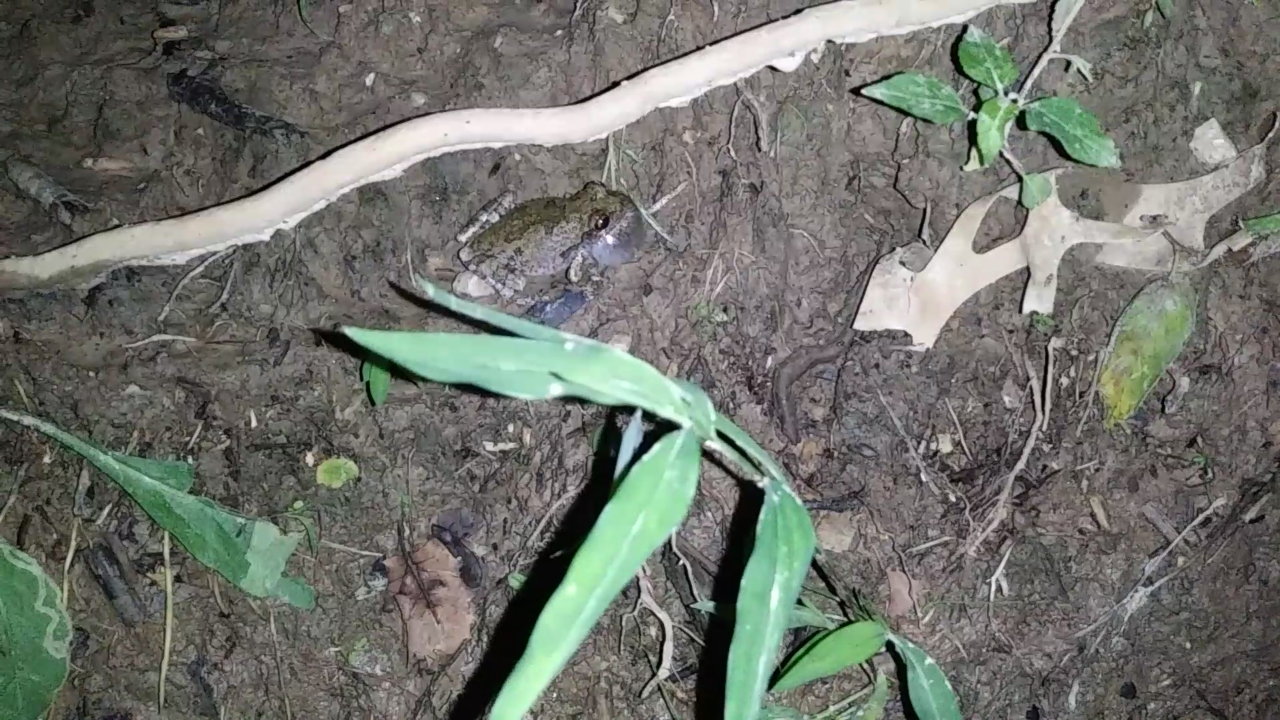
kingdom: Animalia
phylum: Chordata
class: Amphibia
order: Anura
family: Hylidae
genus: Dryophytes
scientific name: Dryophytes chrysoscelis
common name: Cope's gray treefrog
